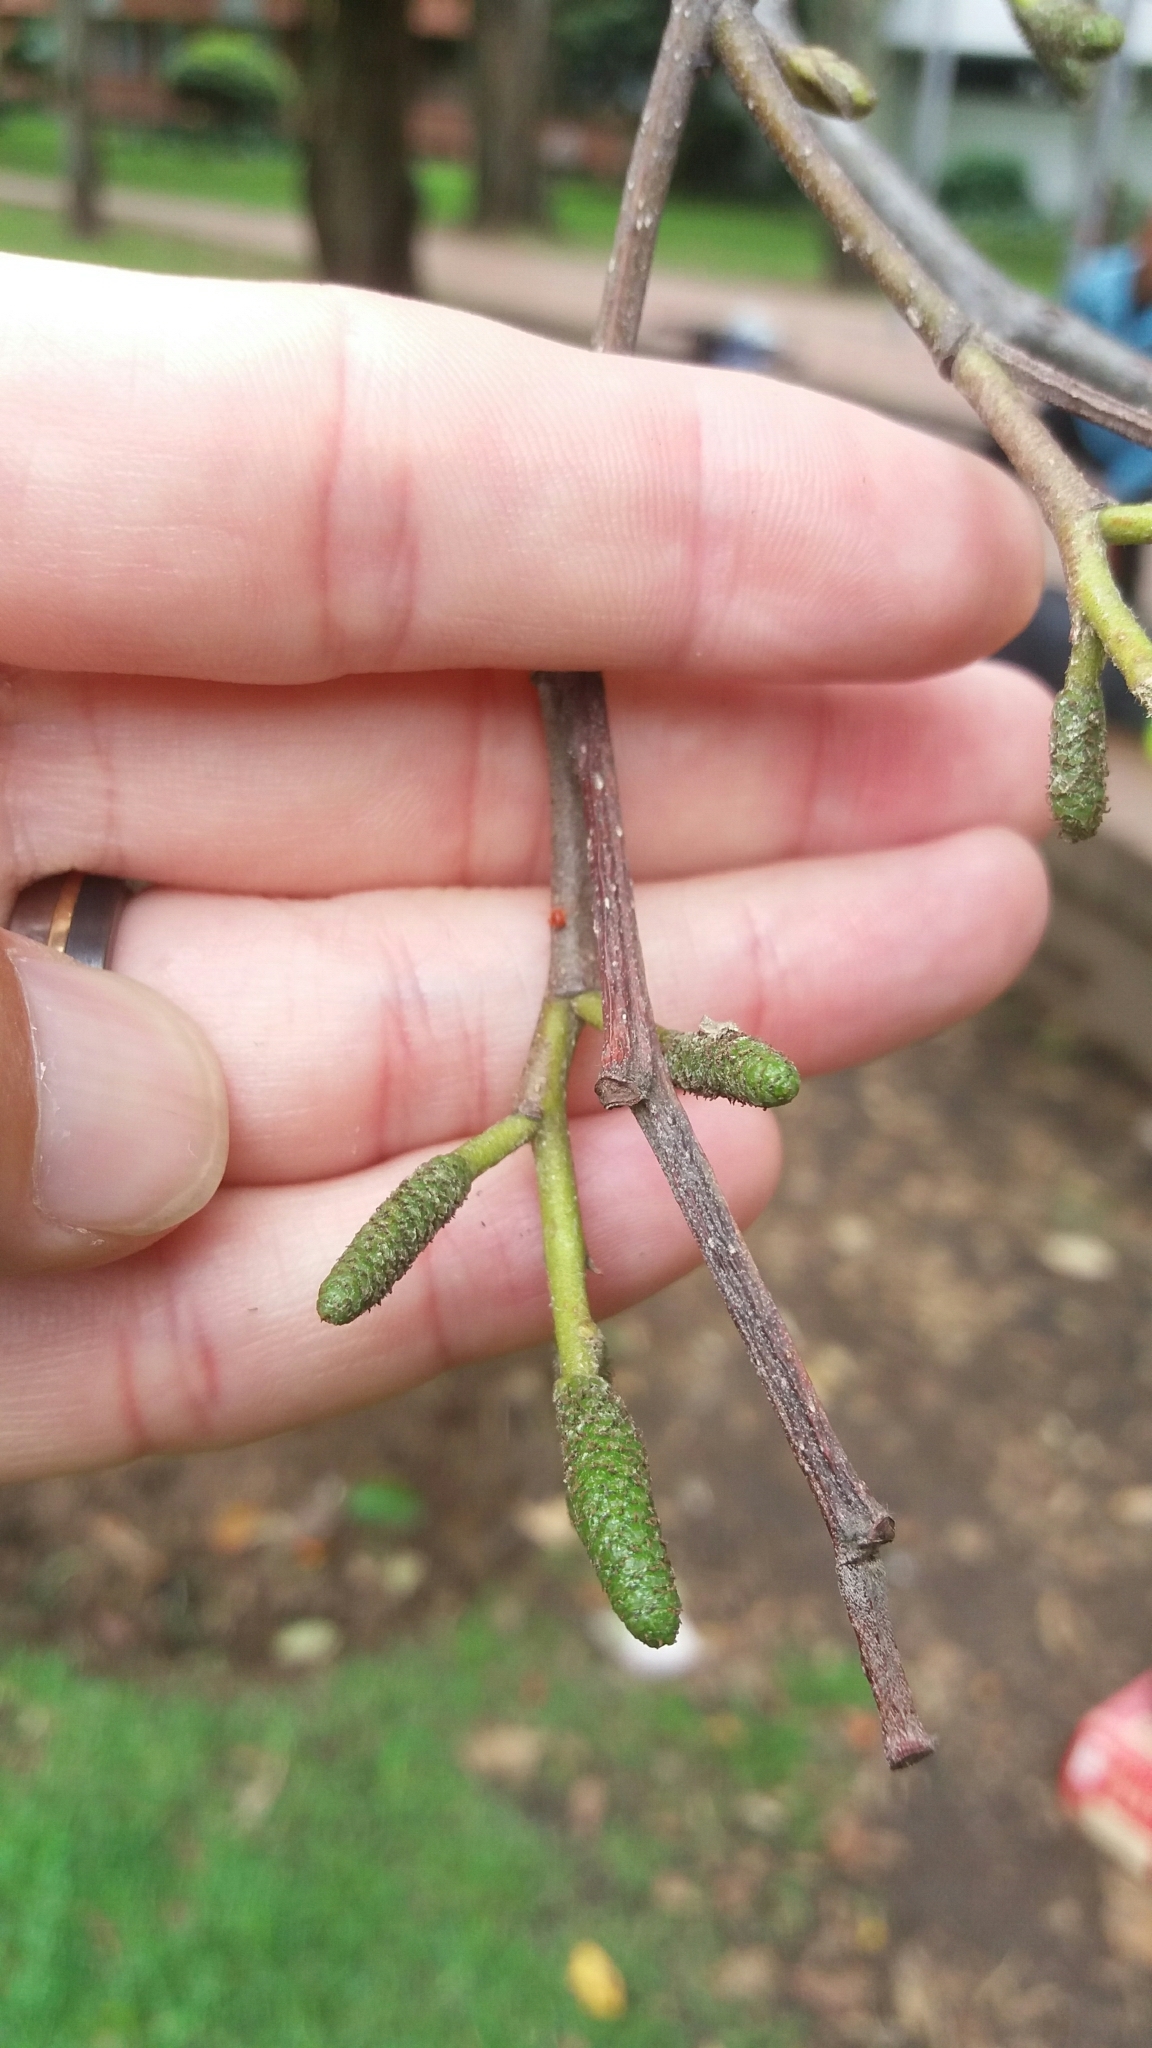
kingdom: Plantae
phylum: Tracheophyta
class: Magnoliopsida
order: Fagales
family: Betulaceae
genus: Alnus
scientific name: Alnus acuminata
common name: Alder
